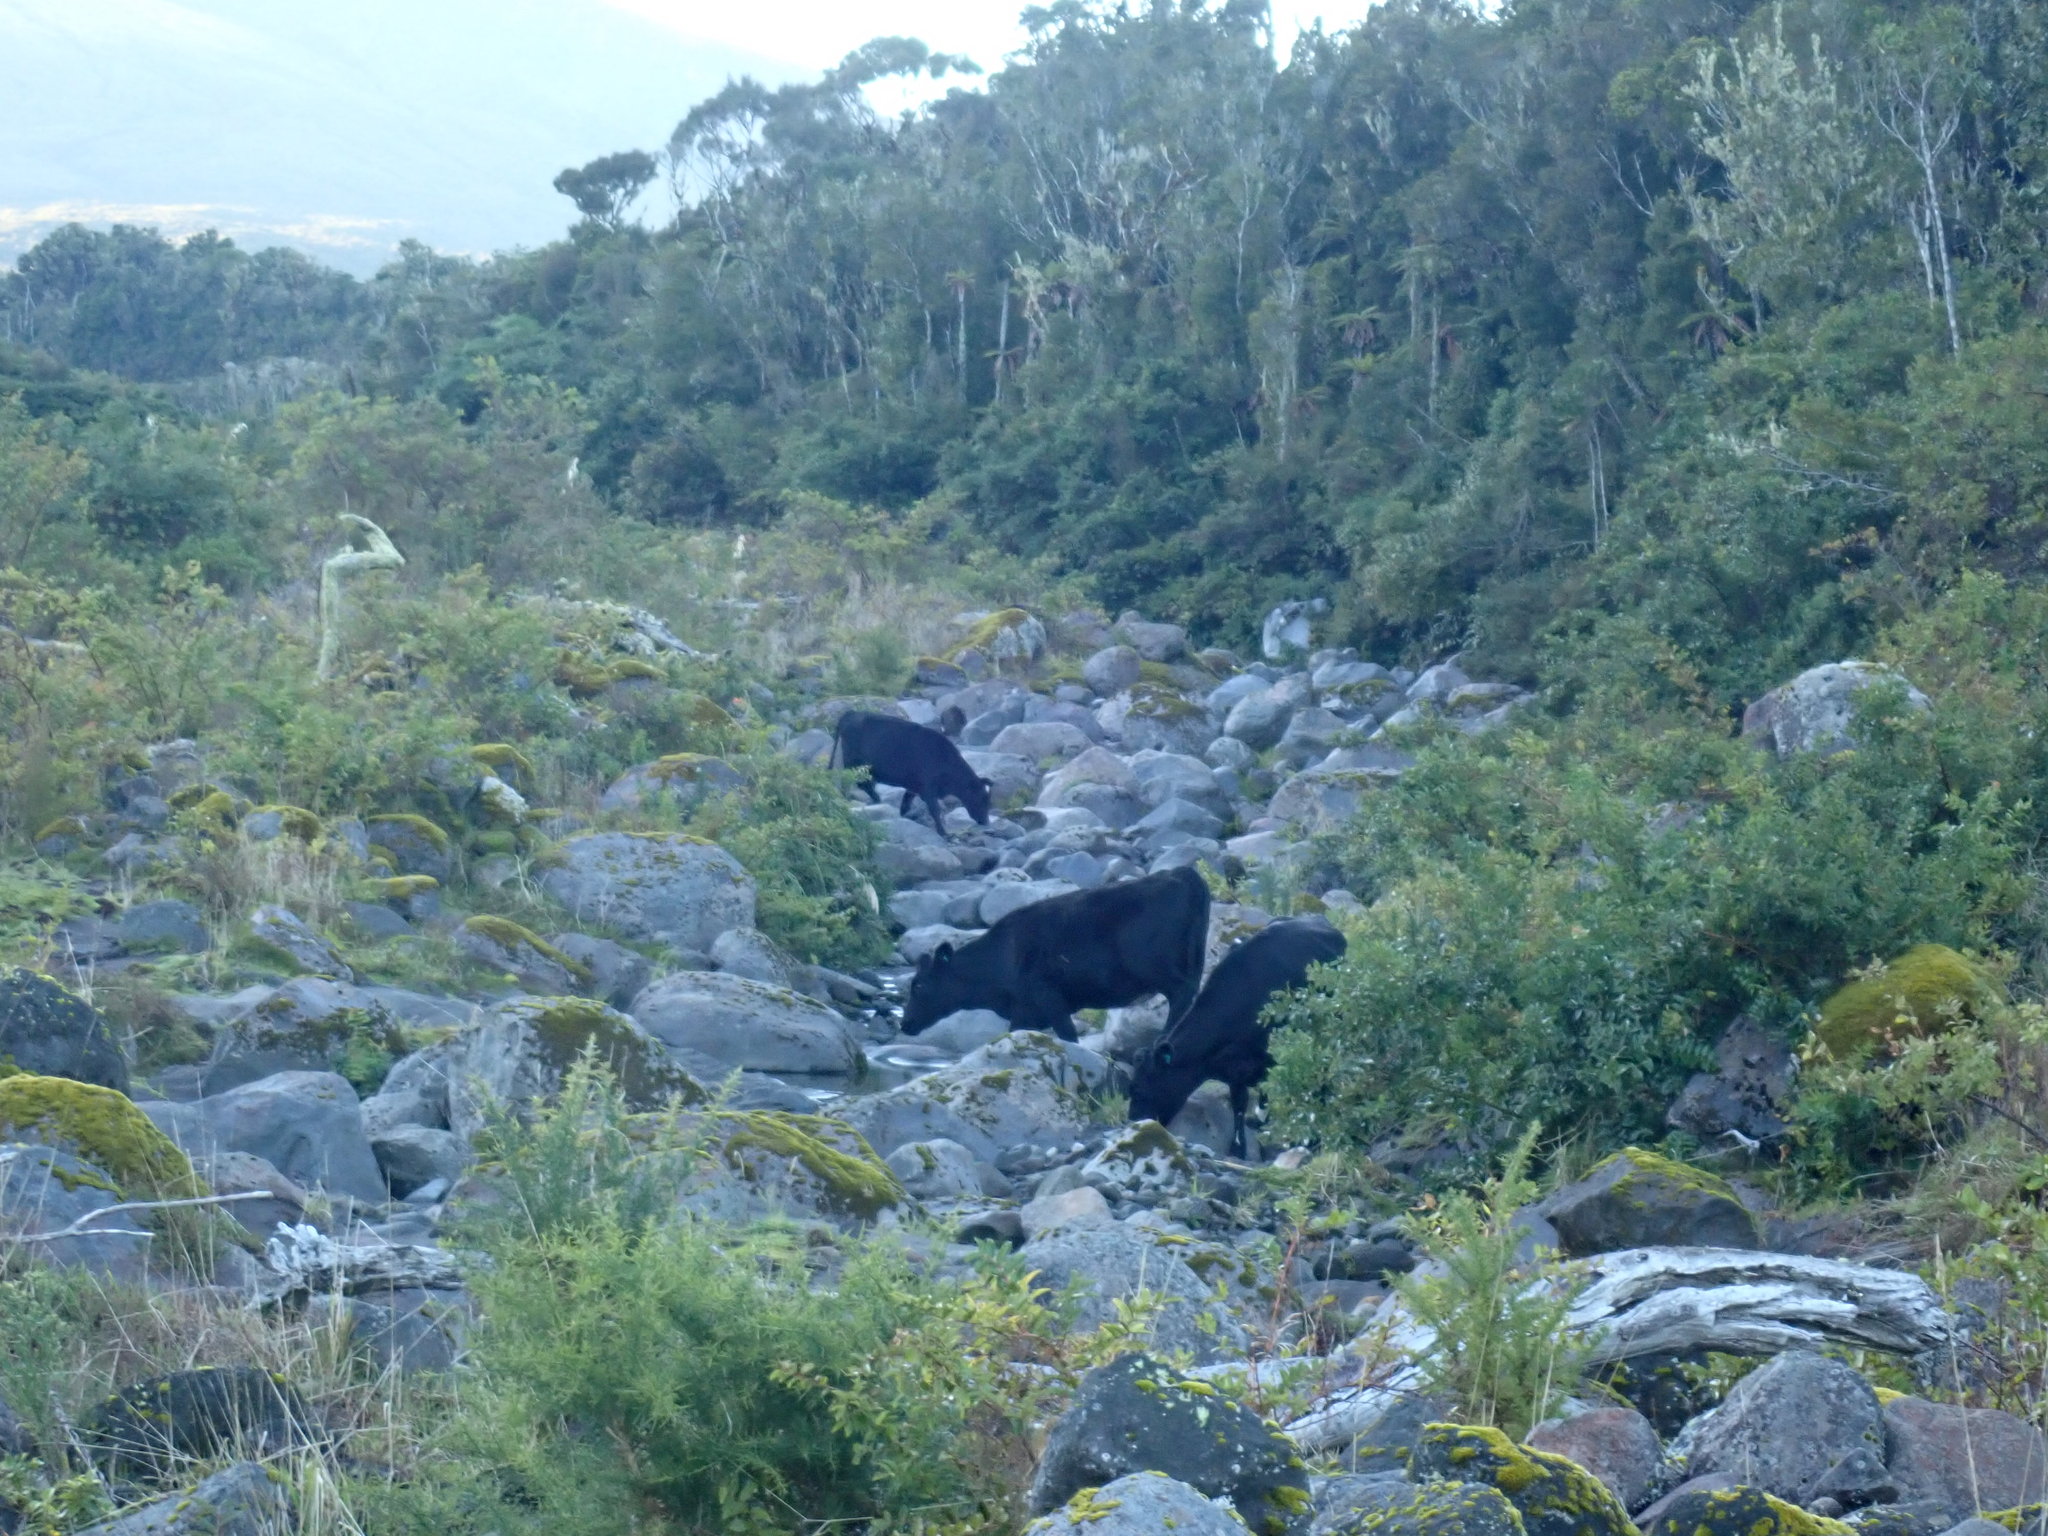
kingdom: Animalia
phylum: Chordata
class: Mammalia
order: Artiodactyla
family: Bovidae
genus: Bos
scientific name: Bos taurus
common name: Domesticated cattle
